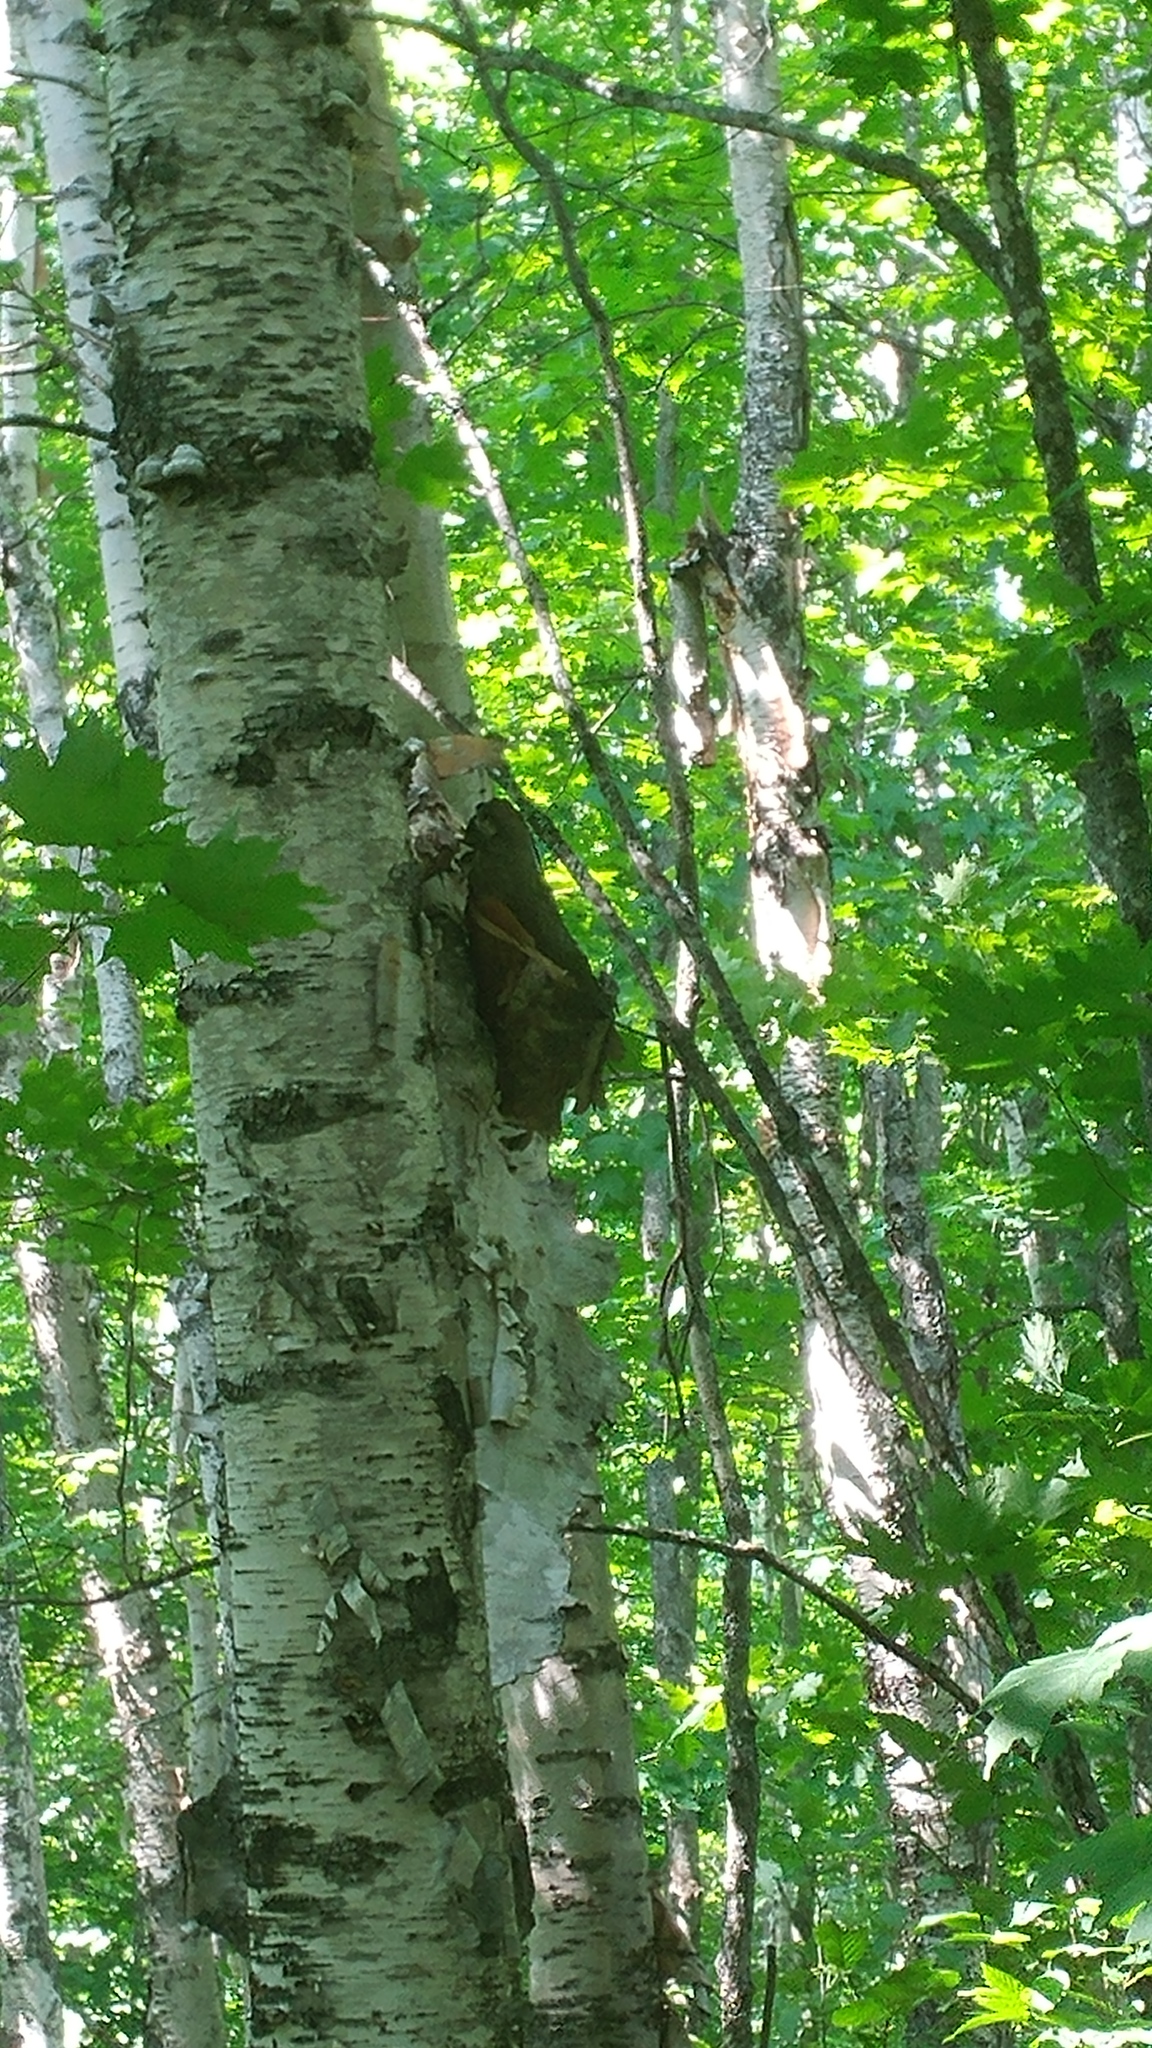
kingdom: Plantae
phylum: Tracheophyta
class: Magnoliopsida
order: Fagales
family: Betulaceae
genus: Betula
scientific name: Betula papyrifera
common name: Paper birch
